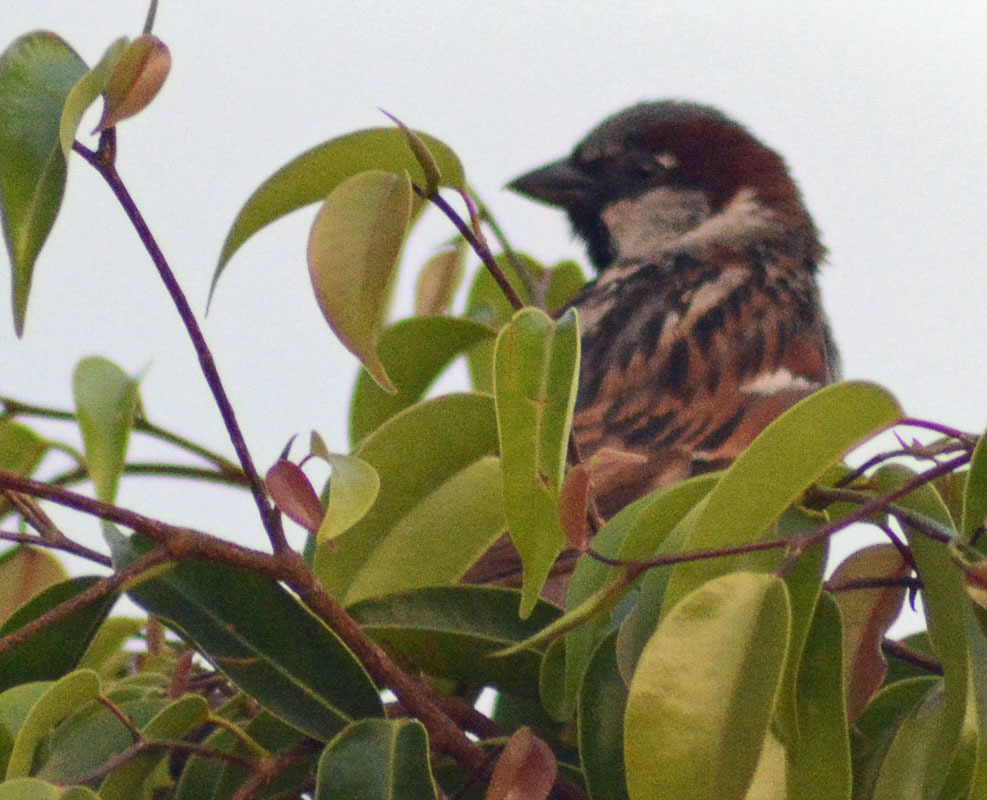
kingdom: Animalia
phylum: Chordata
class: Aves
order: Passeriformes
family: Passeridae
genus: Passer
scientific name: Passer domesticus
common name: House sparrow
